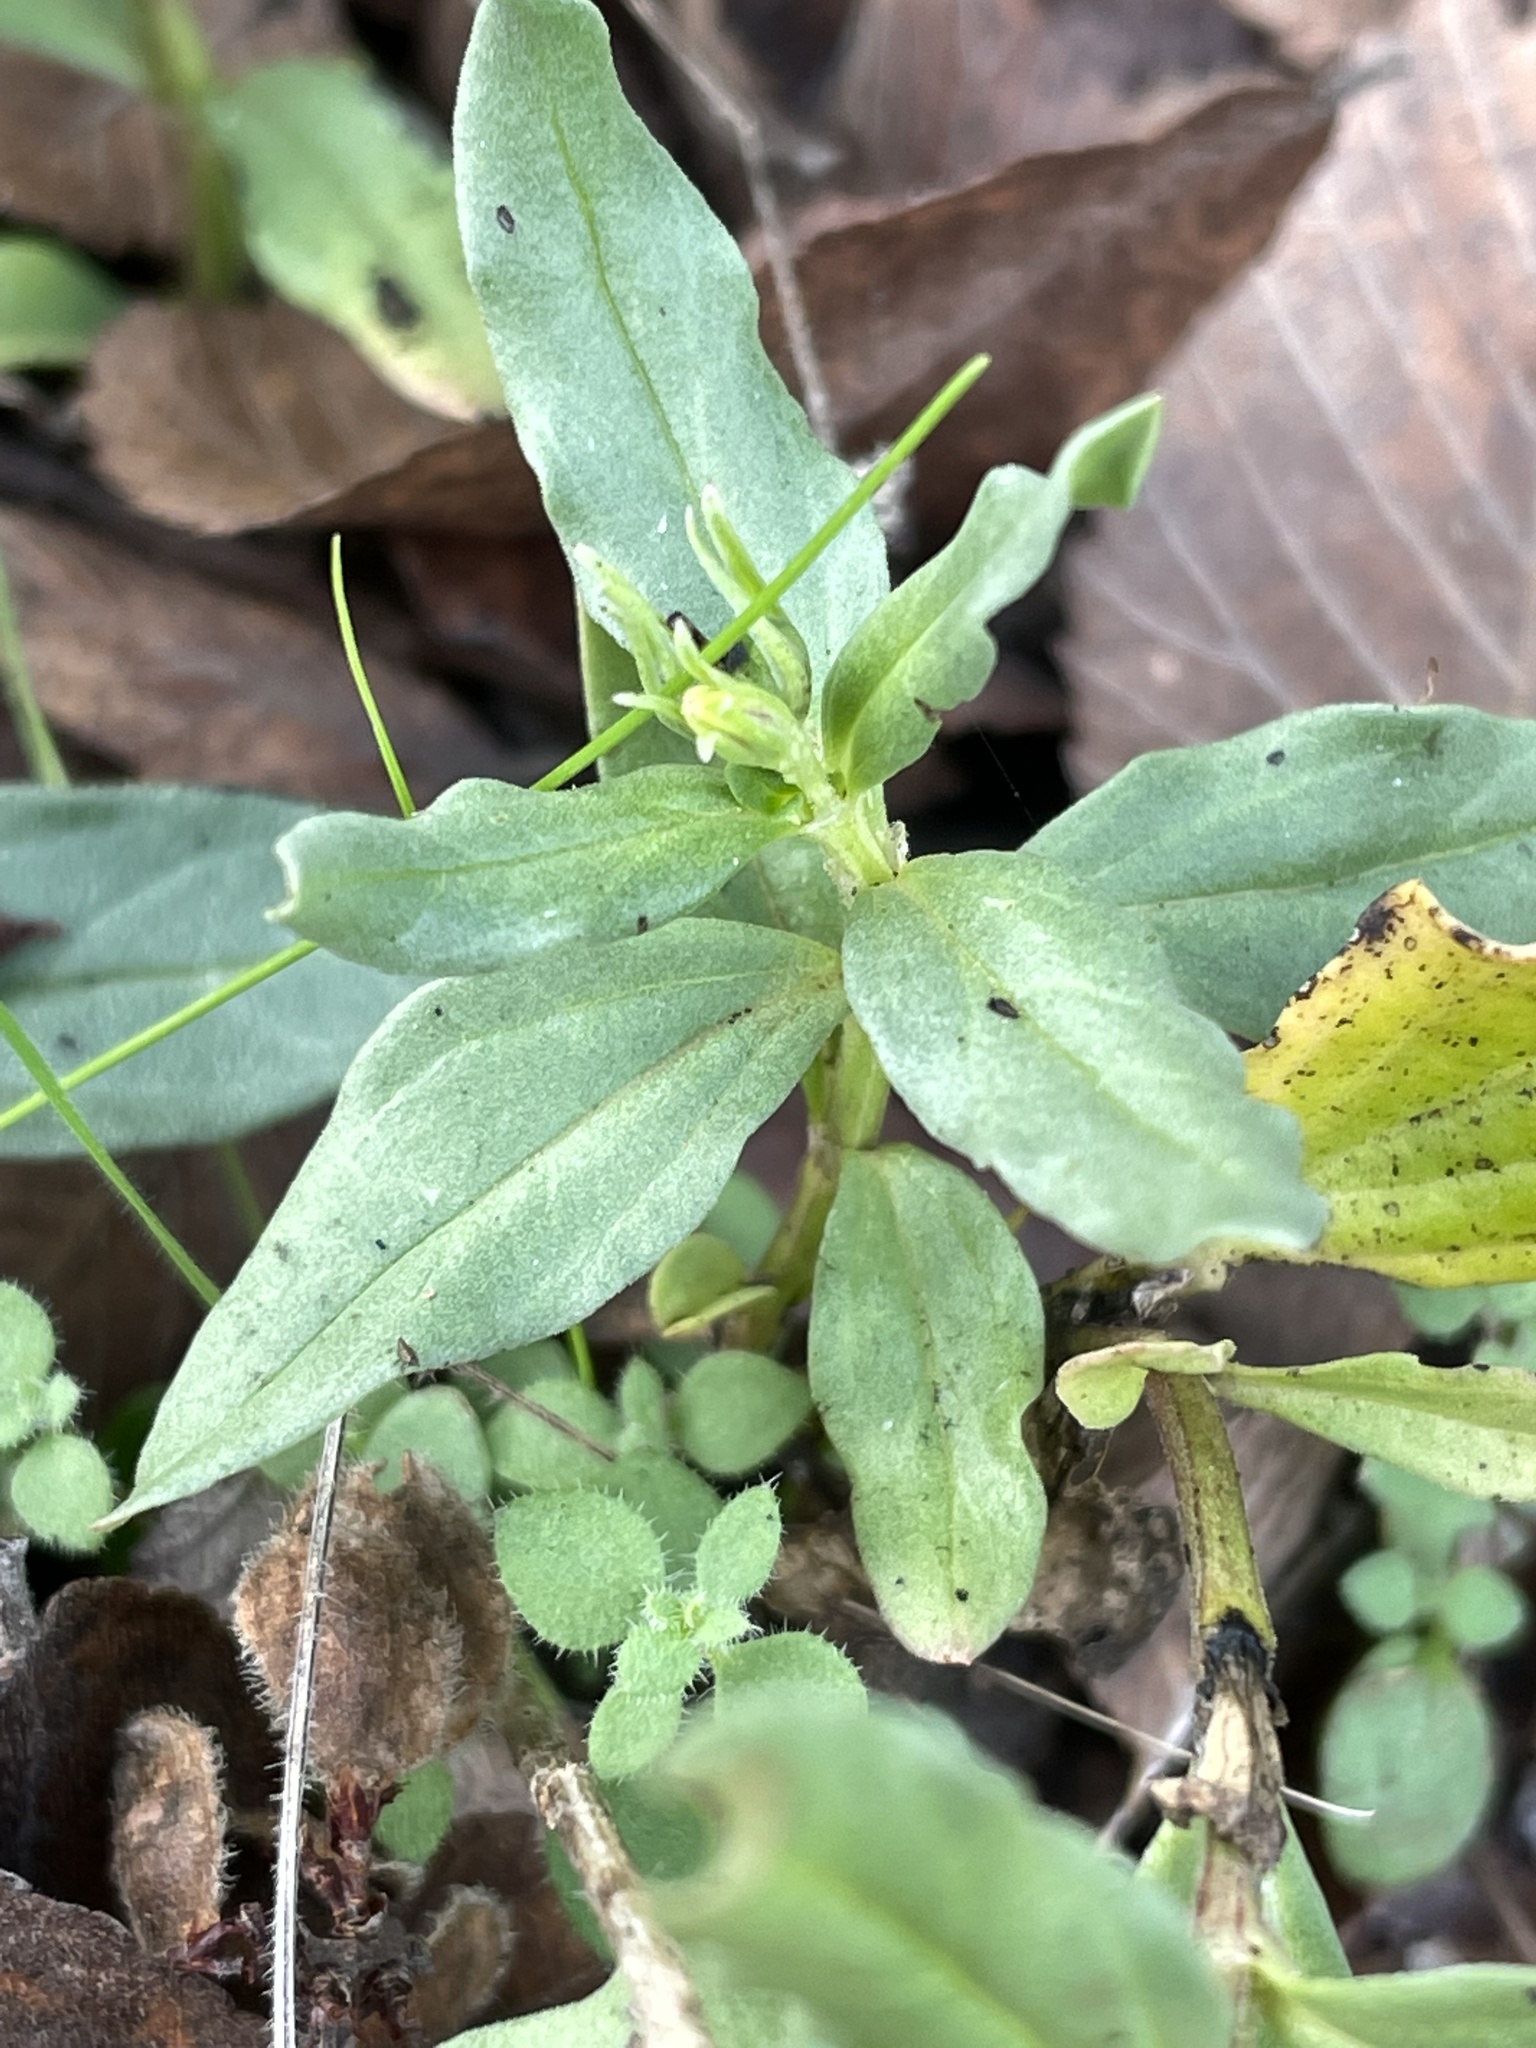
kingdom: Plantae
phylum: Tracheophyta
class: Magnoliopsida
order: Gentianales
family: Loganiaceae
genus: Spigelia
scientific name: Spigelia hedyotidea
